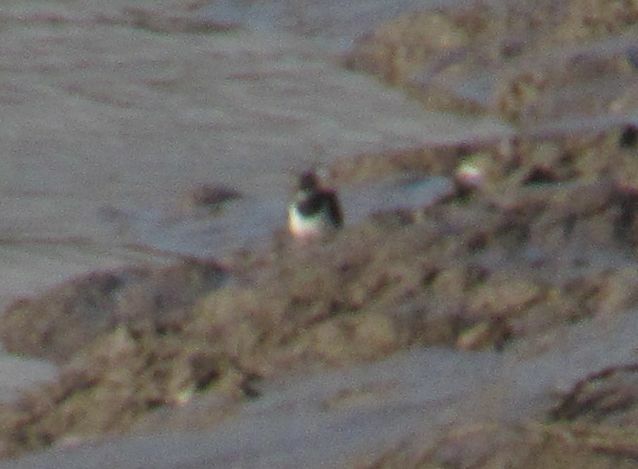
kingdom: Animalia
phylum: Chordata
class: Aves
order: Charadriiformes
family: Charadriidae
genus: Vanellus
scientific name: Vanellus vanellus
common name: Northern lapwing
